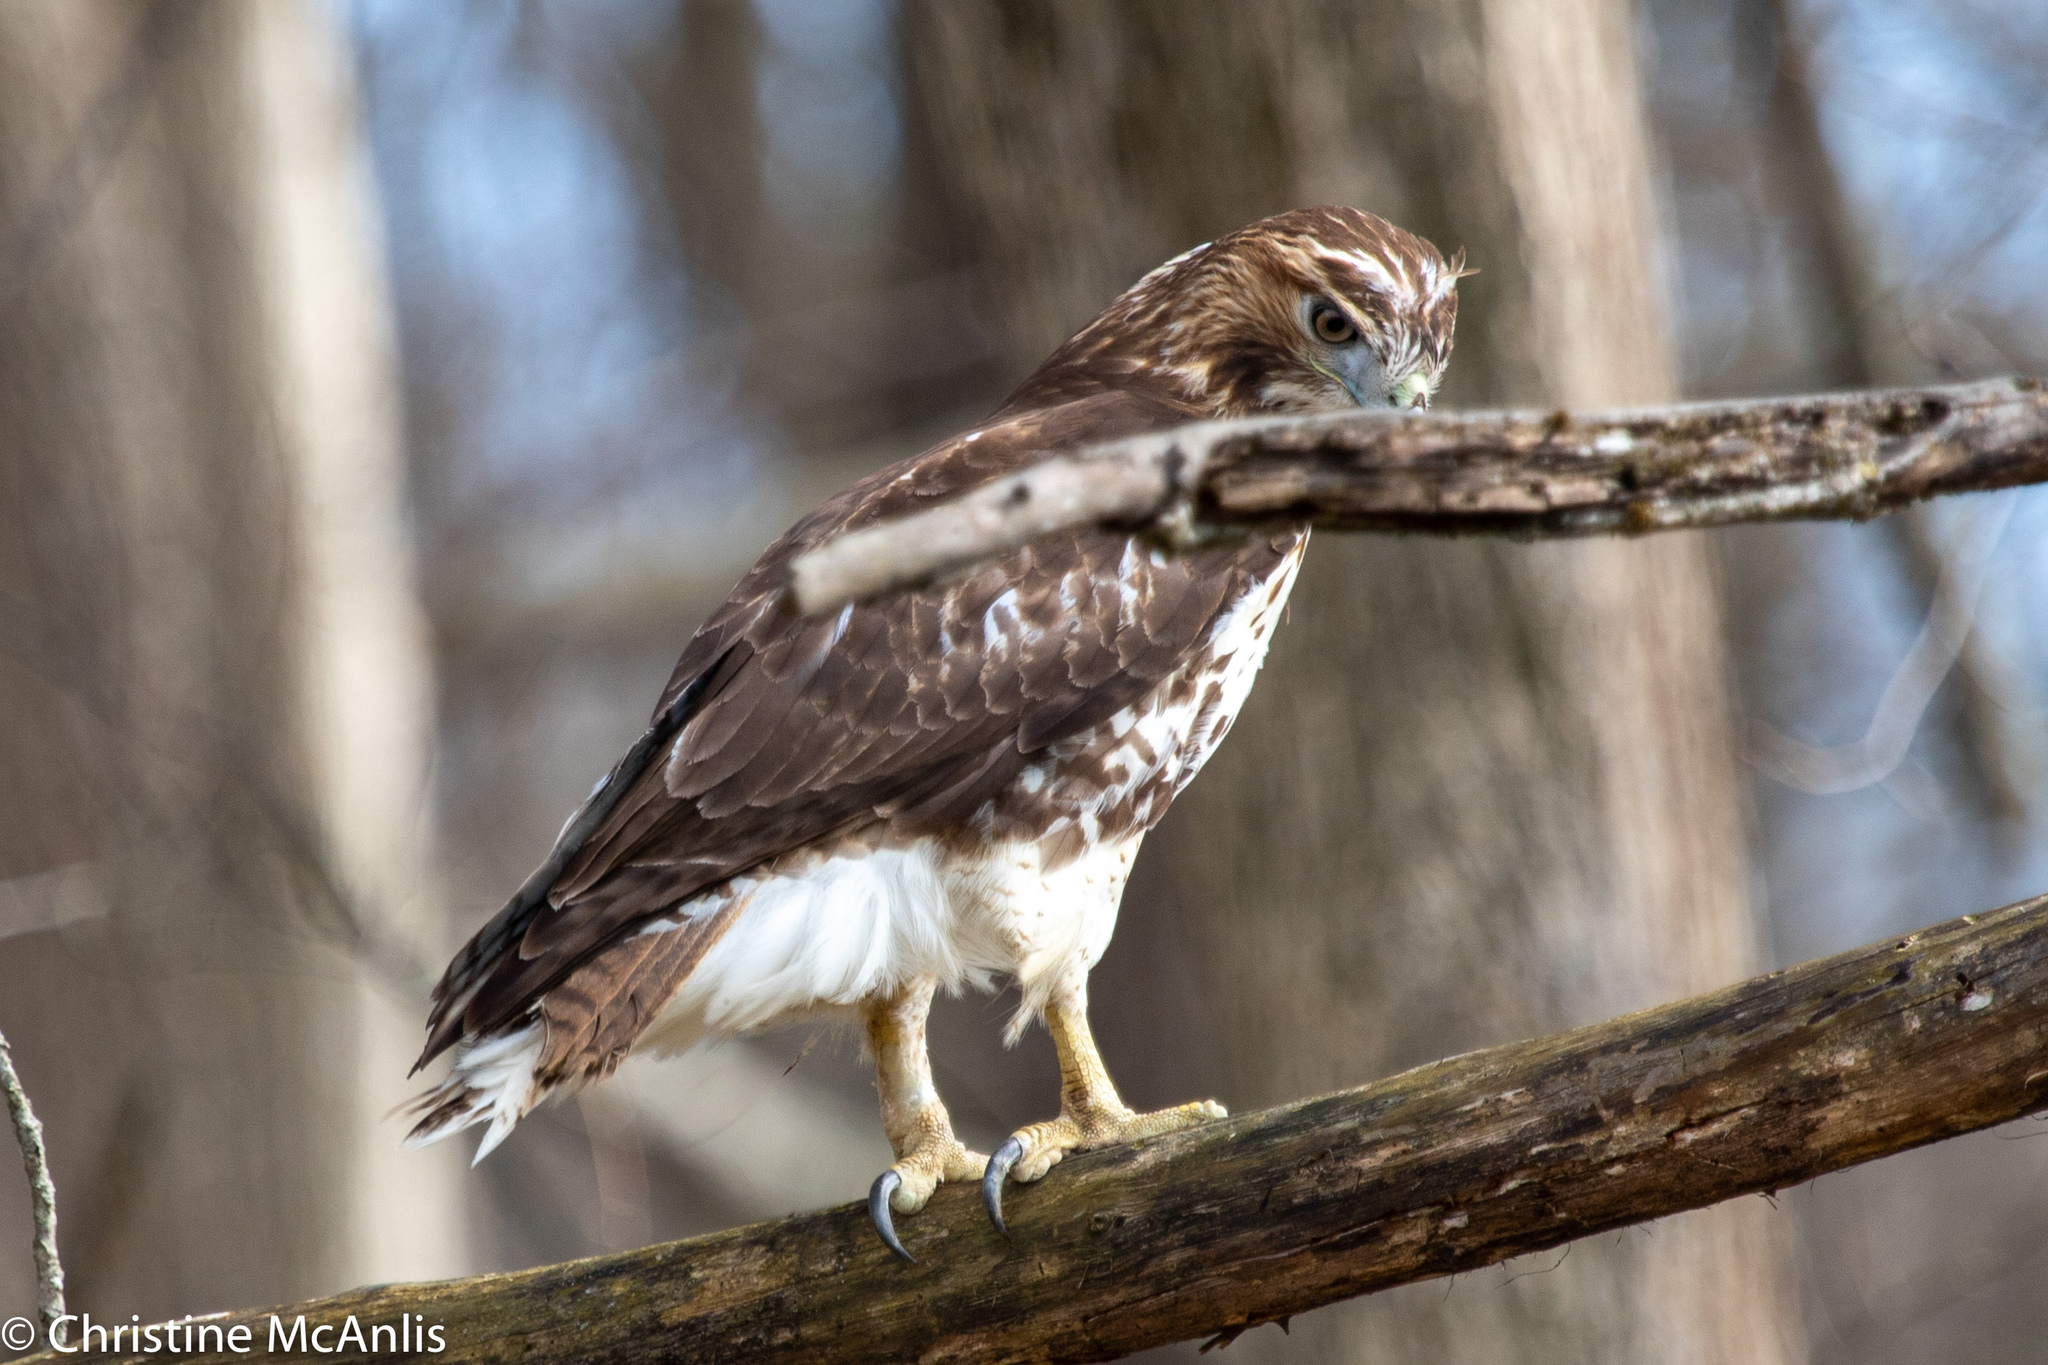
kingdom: Animalia
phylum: Chordata
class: Aves
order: Accipitriformes
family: Accipitridae
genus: Buteo
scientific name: Buteo jamaicensis
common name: Red-tailed hawk
